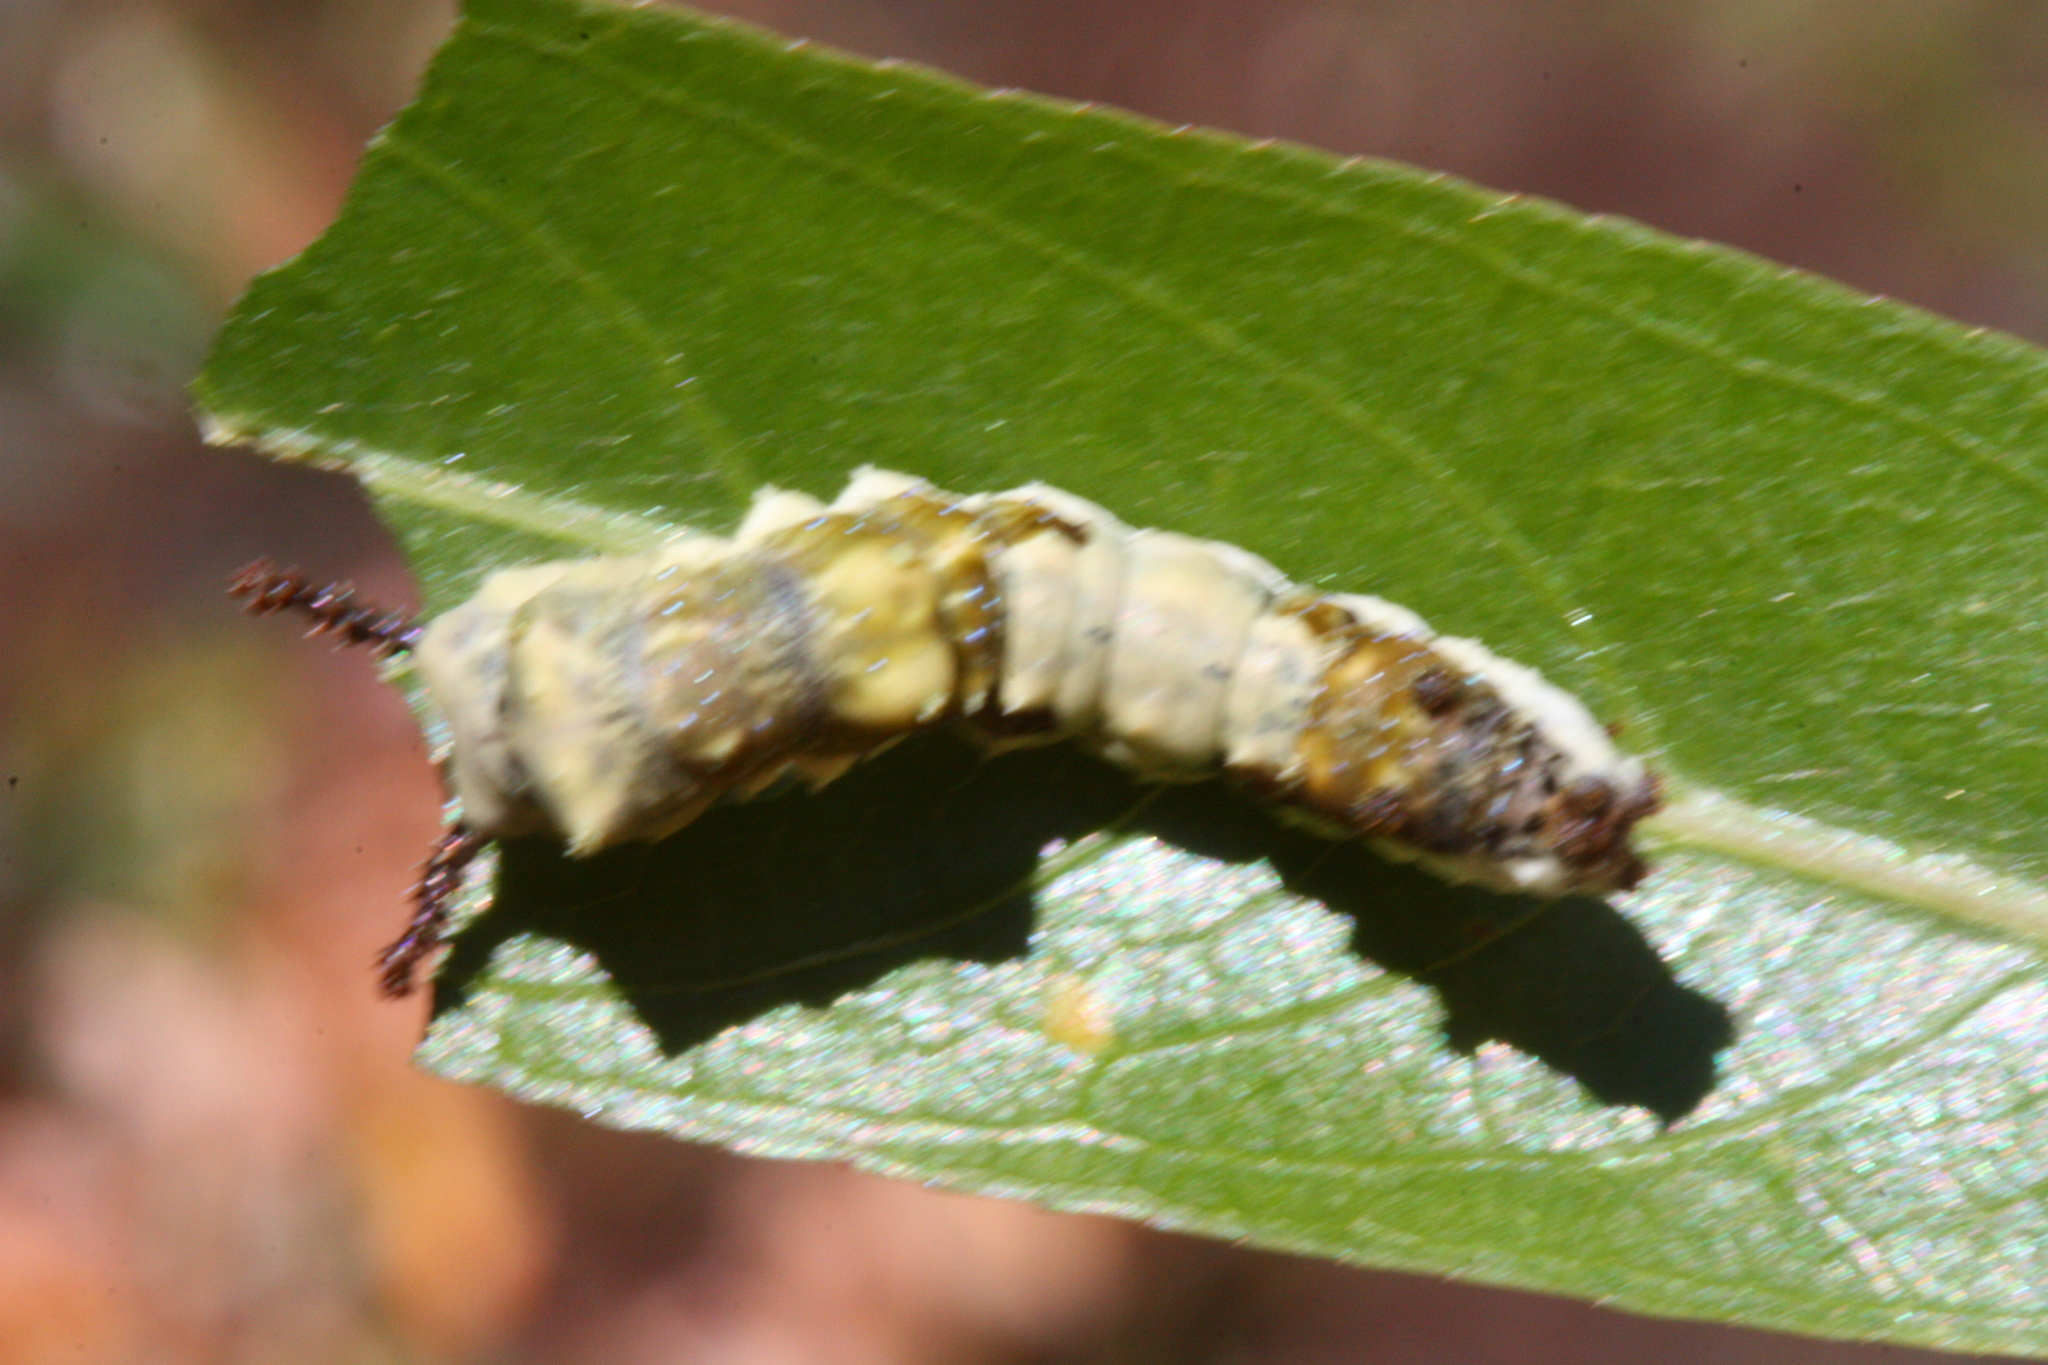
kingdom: Animalia
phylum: Arthropoda
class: Insecta
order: Lepidoptera
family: Nymphalidae
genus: Limenitis
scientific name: Limenitis lorquini
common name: Lorquin's admiral
